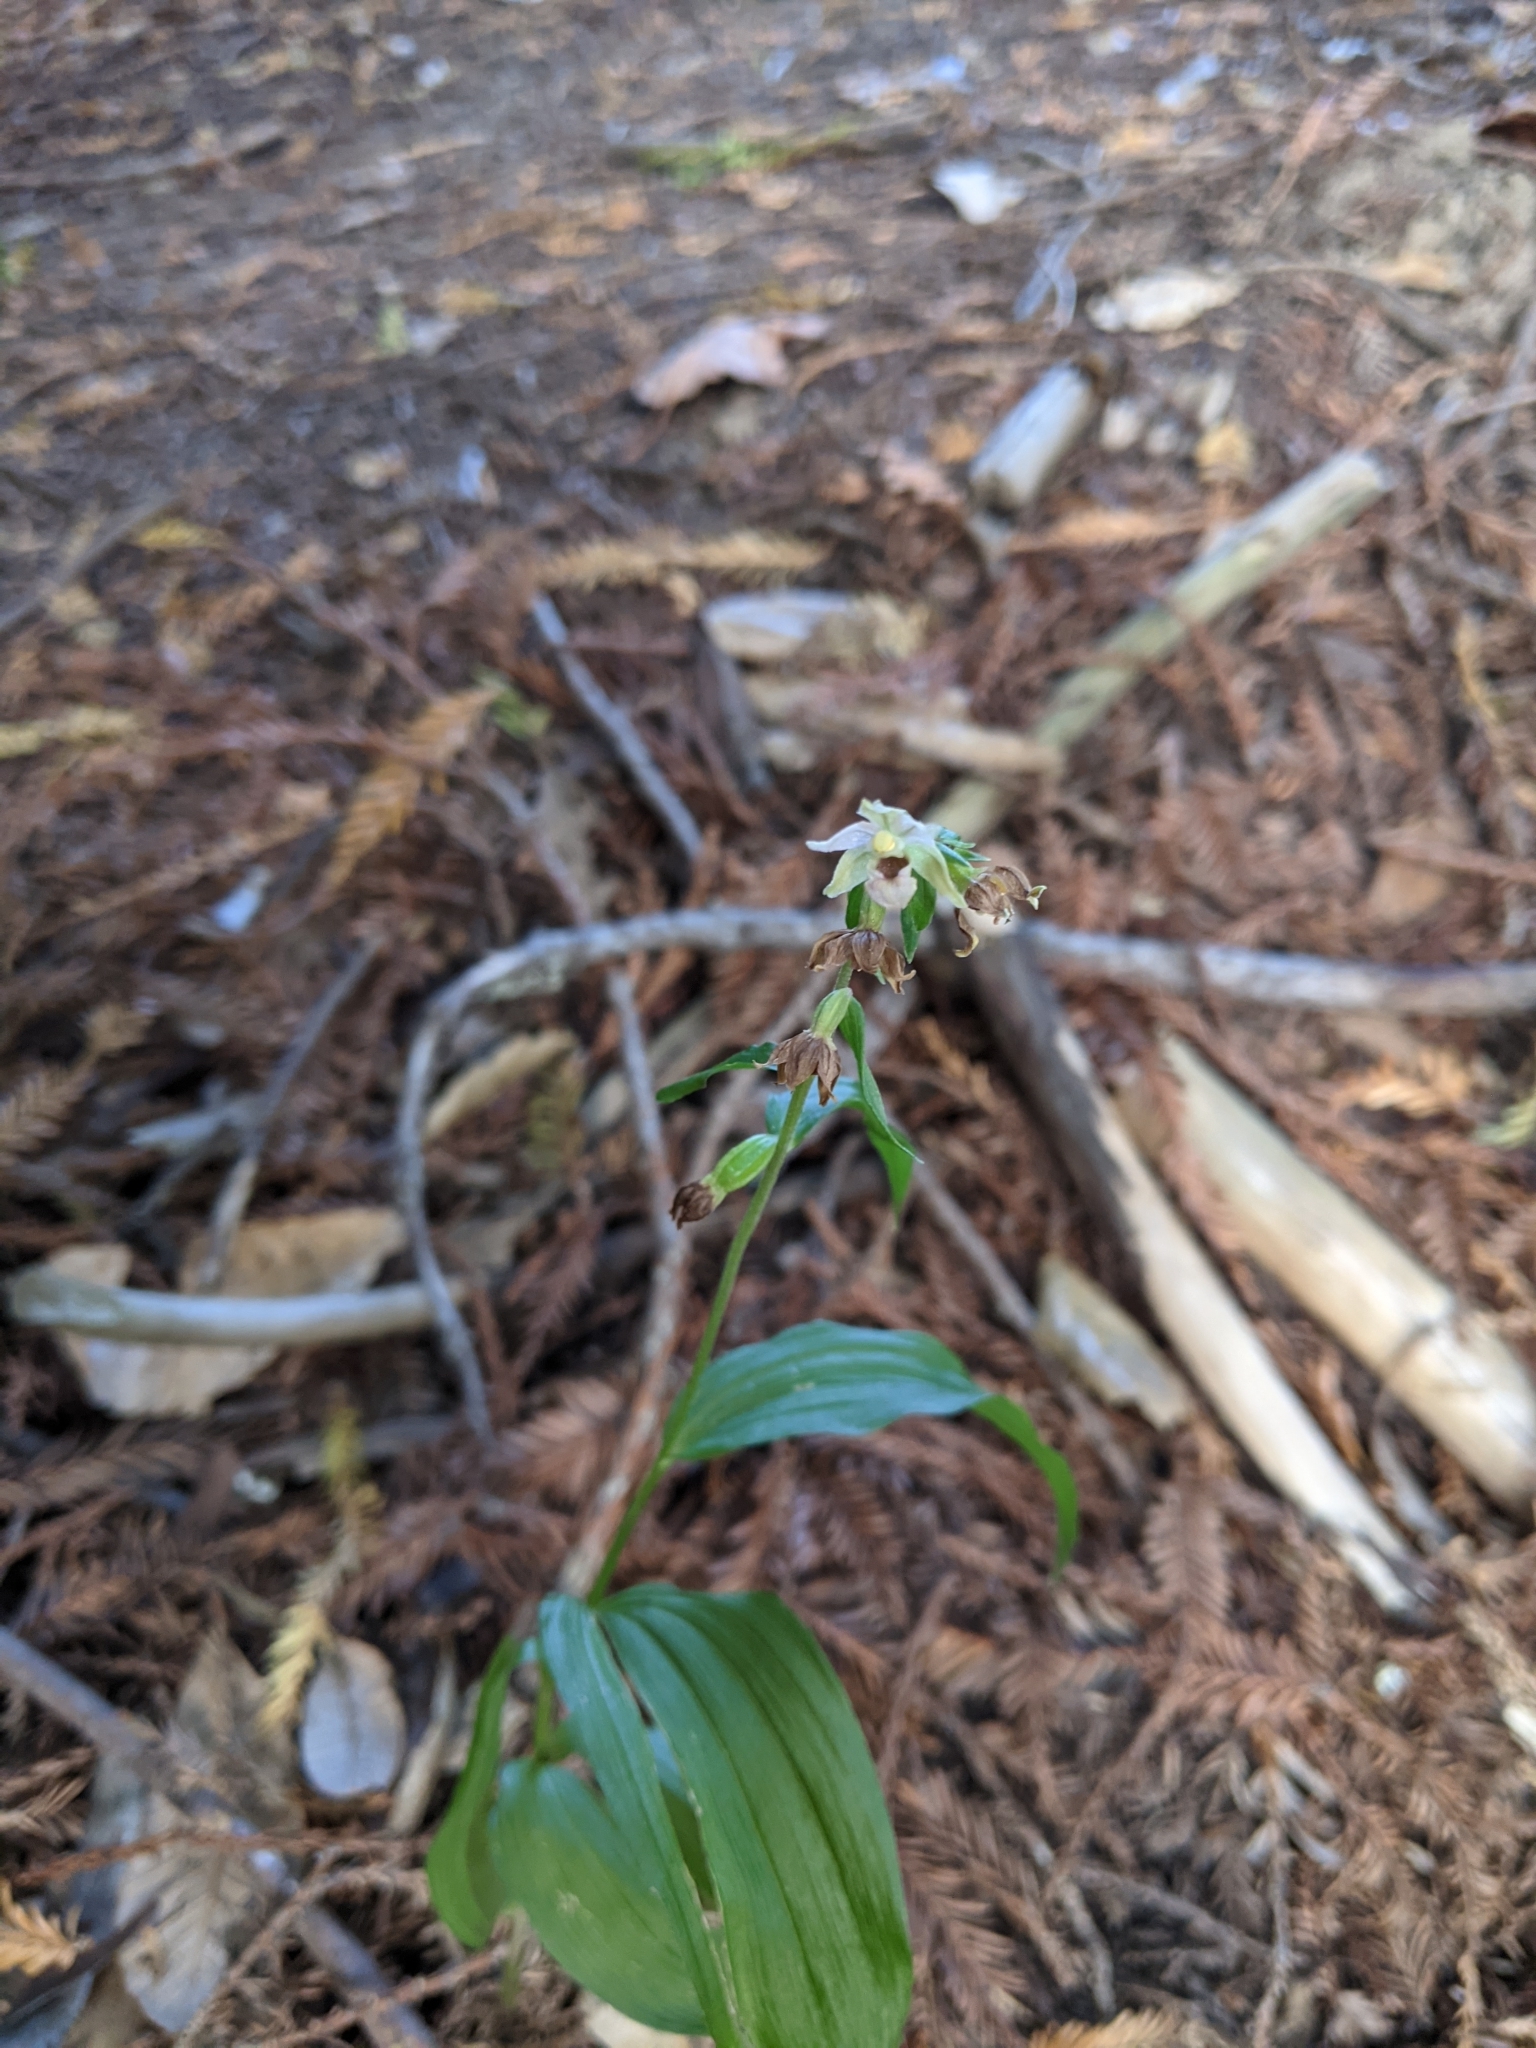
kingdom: Plantae
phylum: Tracheophyta
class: Liliopsida
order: Asparagales
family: Orchidaceae
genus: Epipactis
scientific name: Epipactis helleborine
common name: Broad-leaved helleborine
